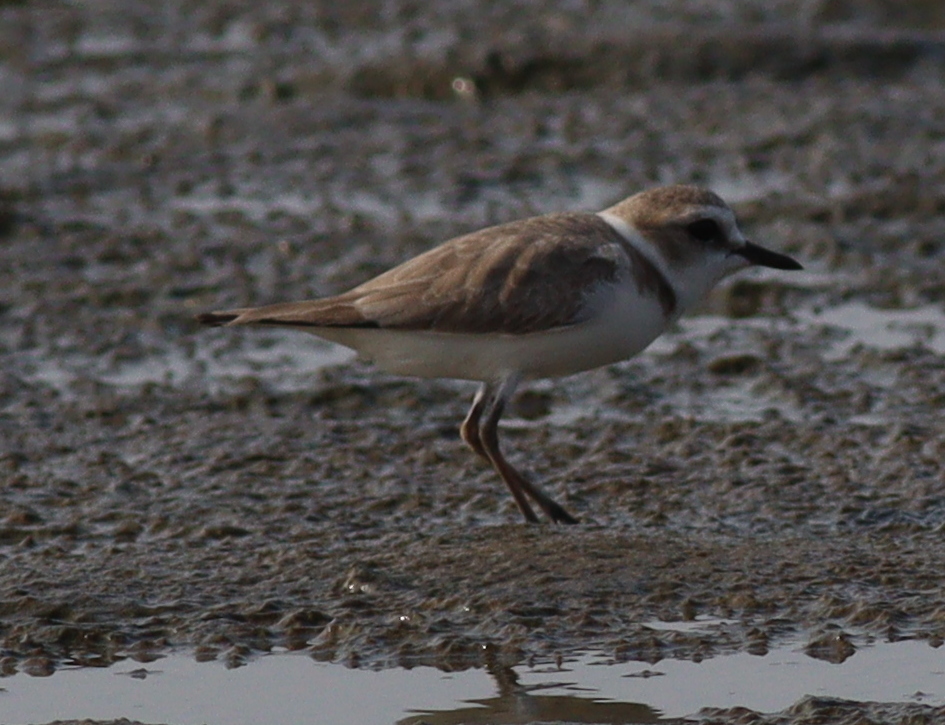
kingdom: Animalia
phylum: Chordata
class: Aves
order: Charadriiformes
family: Charadriidae
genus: Charadrius
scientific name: Charadrius alexandrinus
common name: Kentish plover
